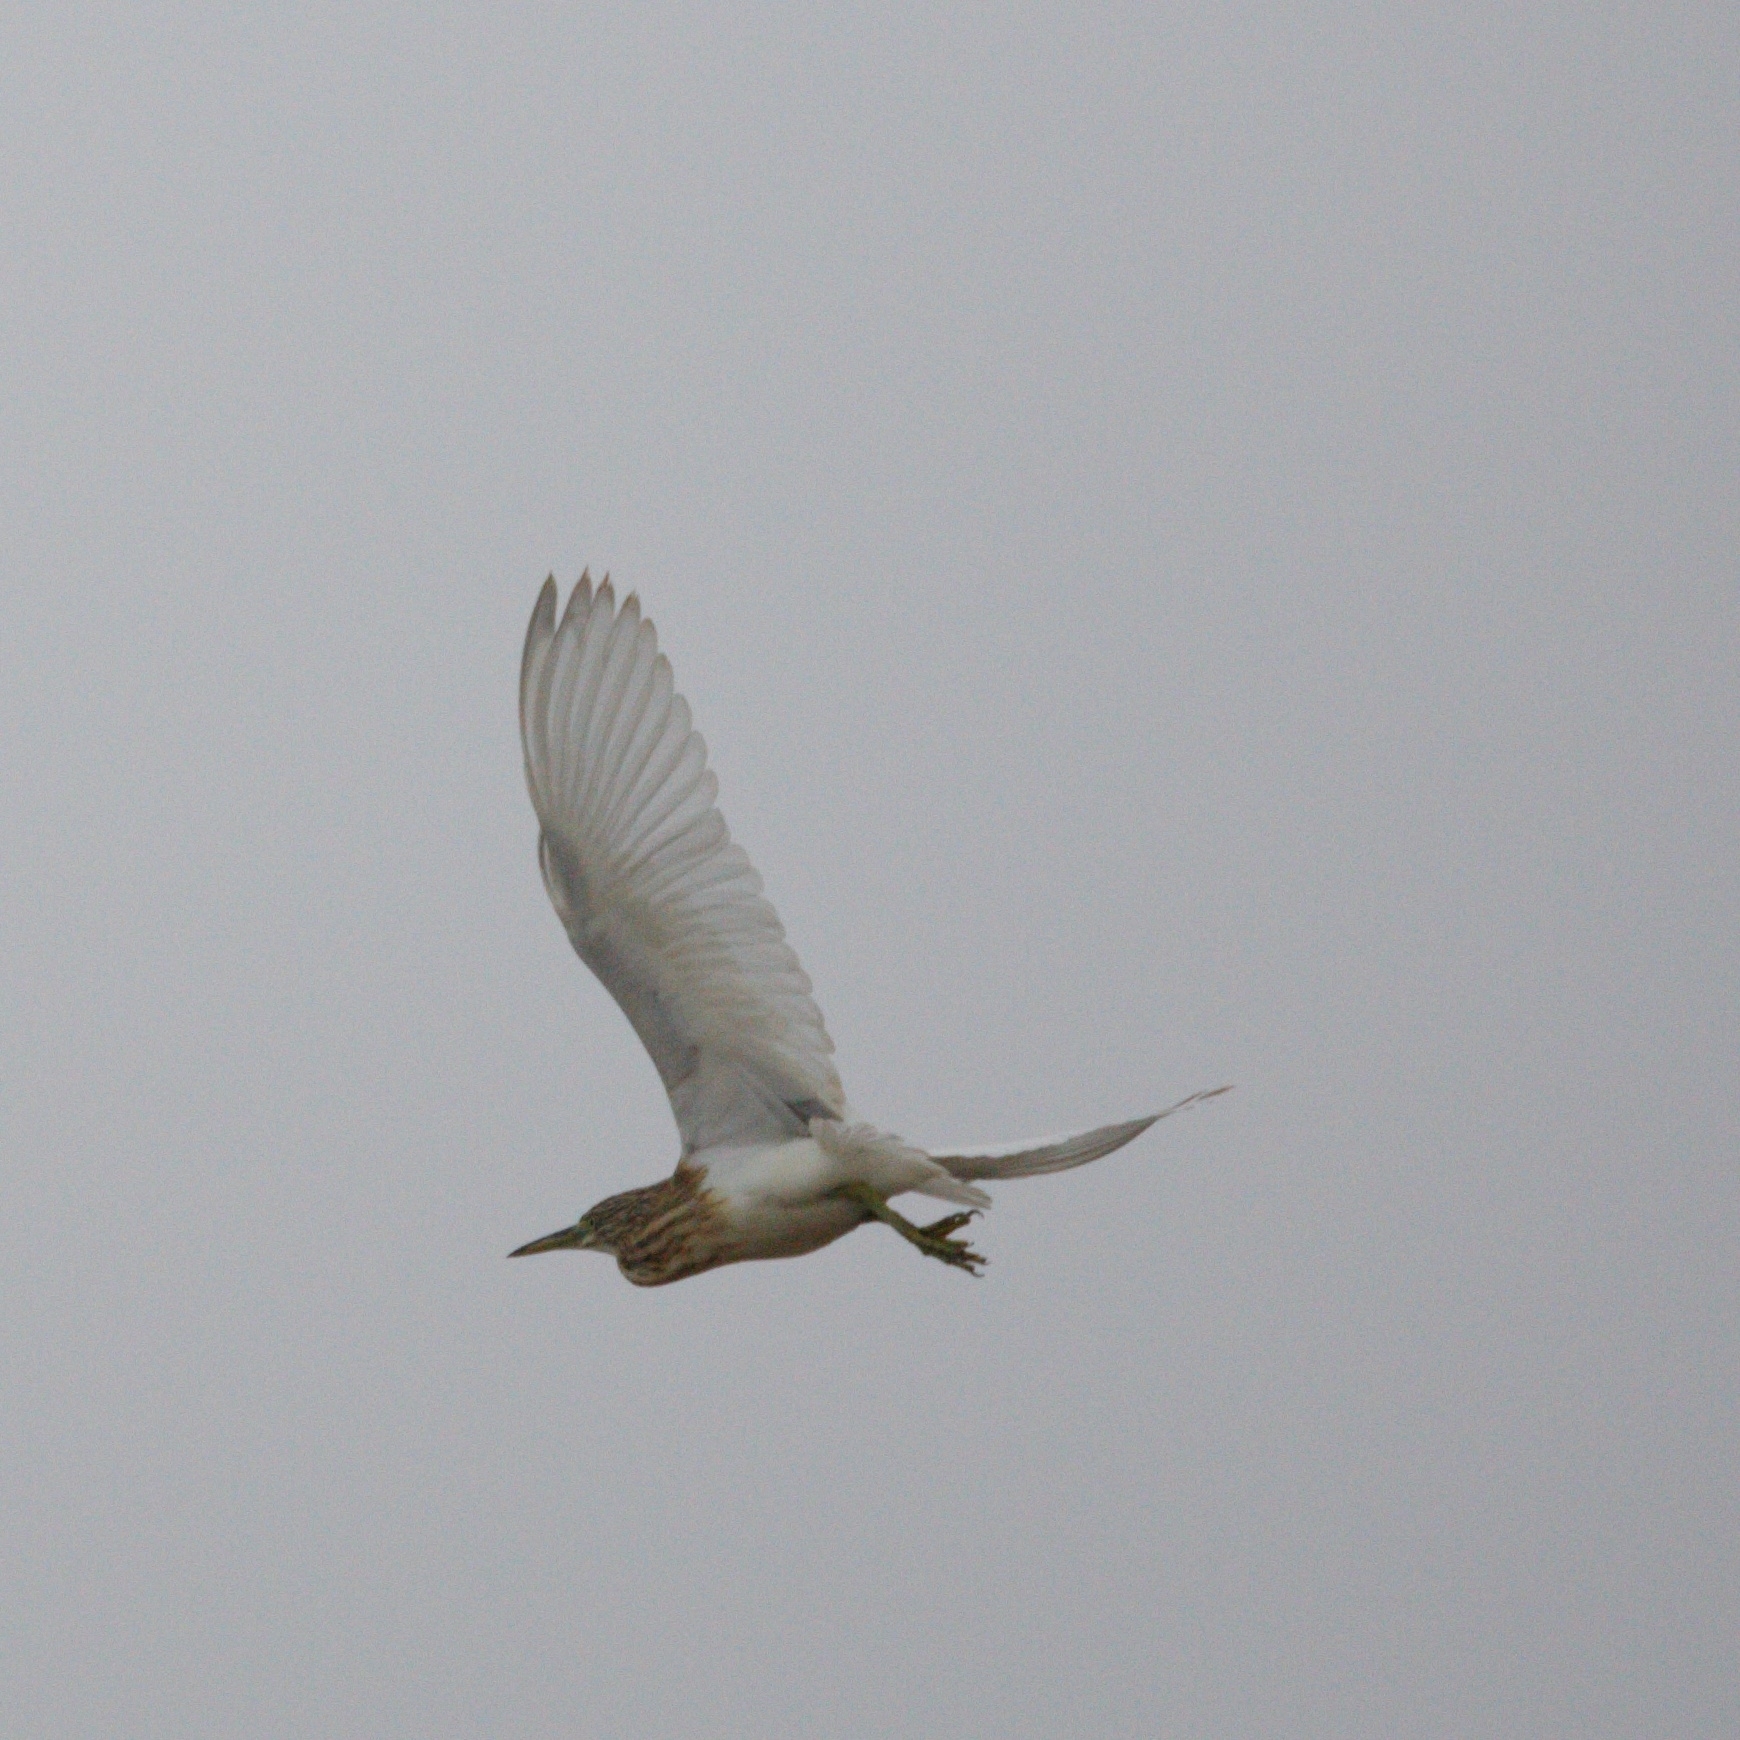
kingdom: Animalia
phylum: Chordata
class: Aves
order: Pelecaniformes
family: Ardeidae
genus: Ardeola
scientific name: Ardeola ralloides
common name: Squacco heron
